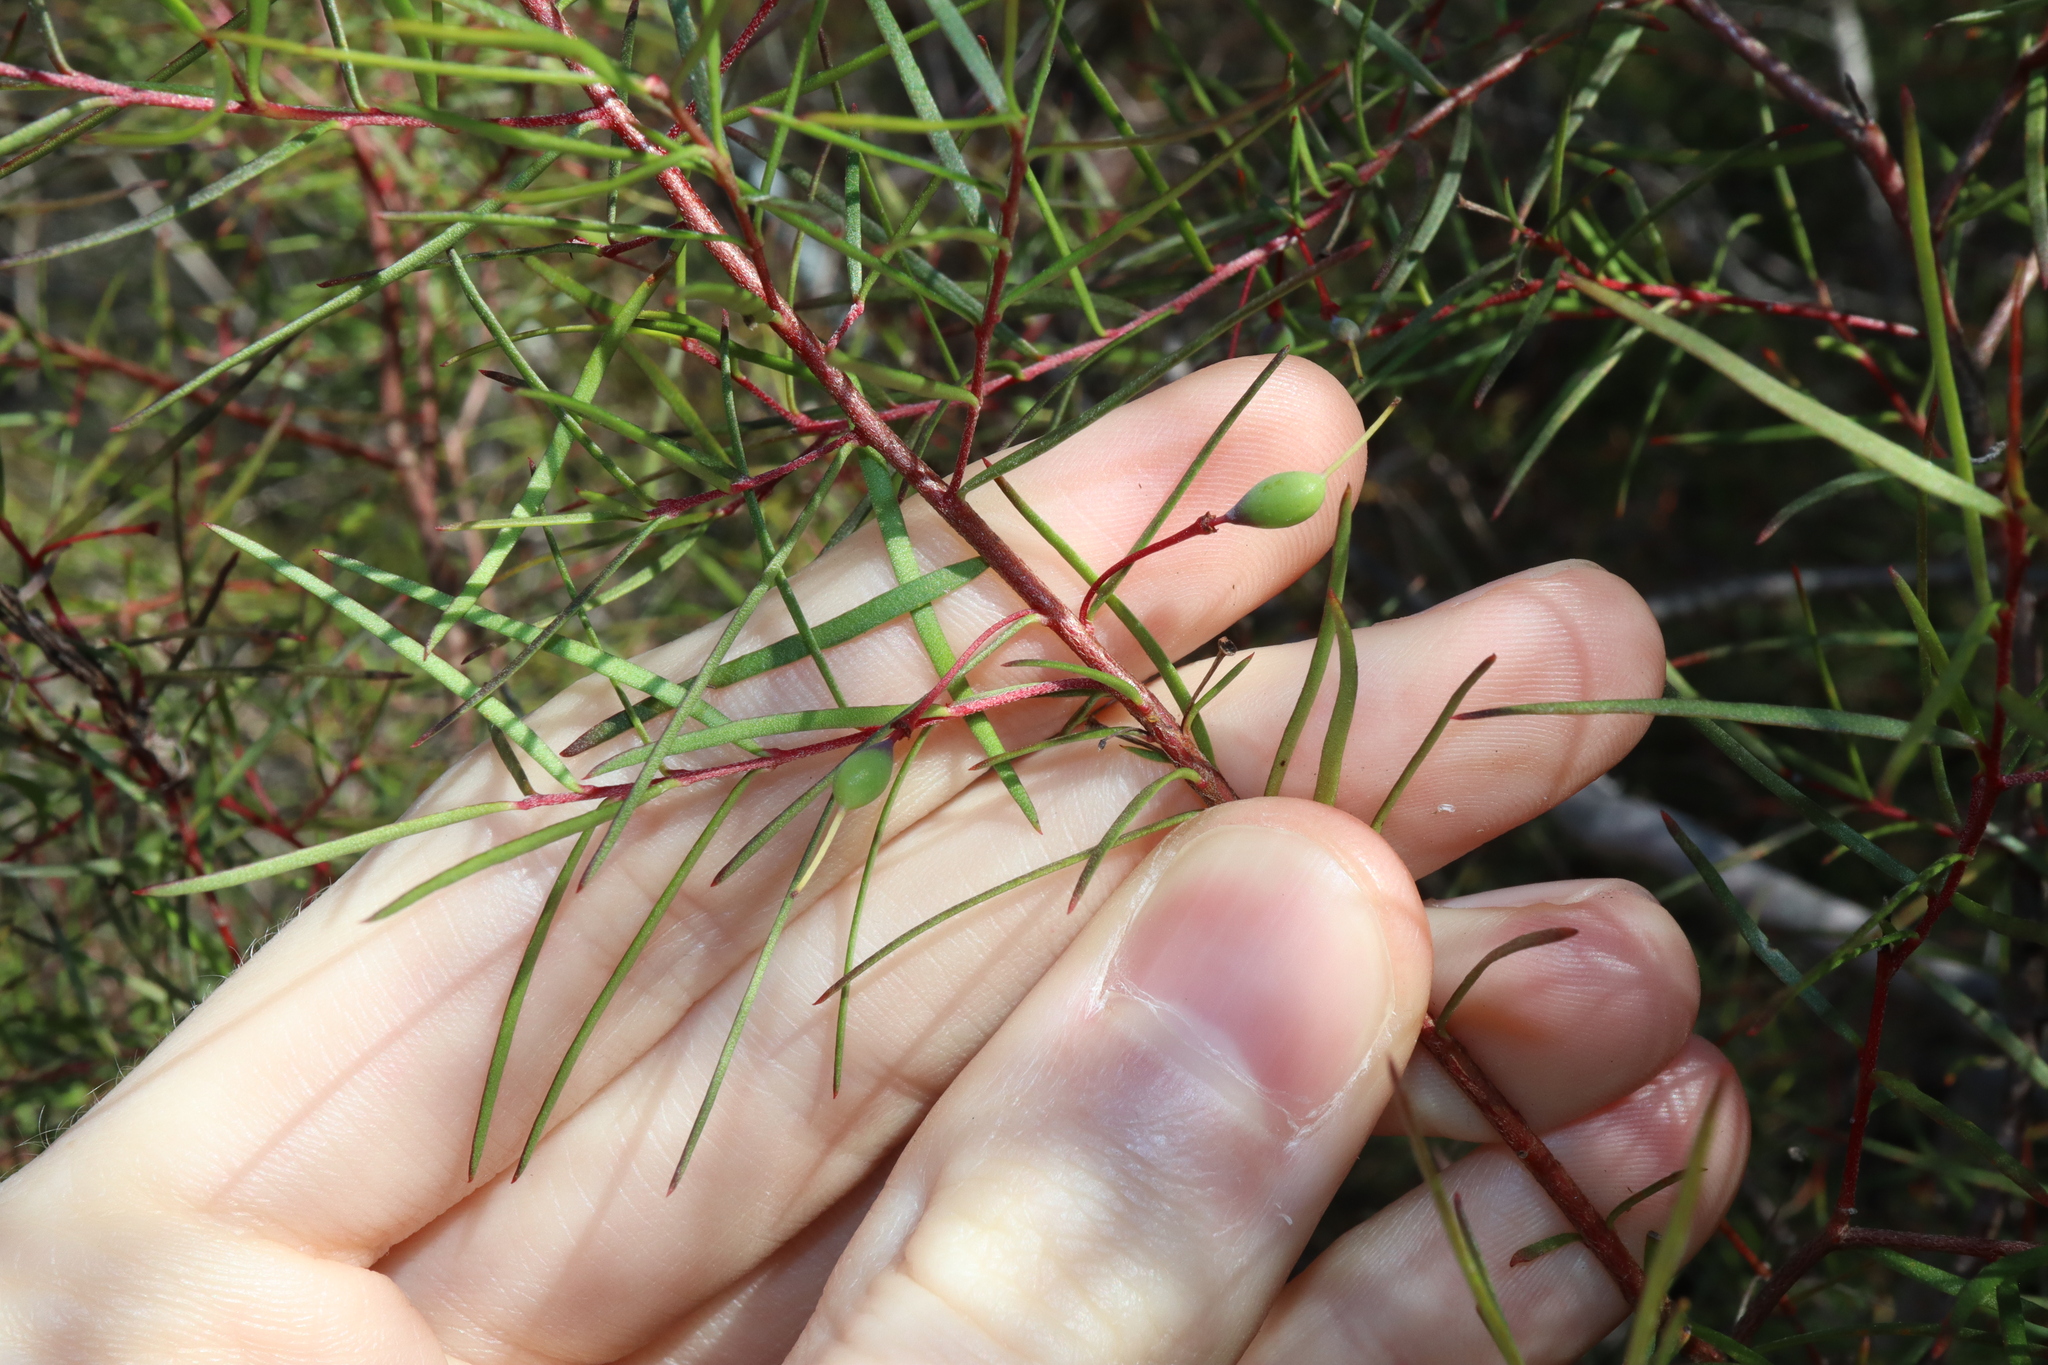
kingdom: Plantae
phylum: Tracheophyta
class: Magnoliopsida
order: Proteales
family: Proteaceae
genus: Persoonia
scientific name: Persoonia nutans
